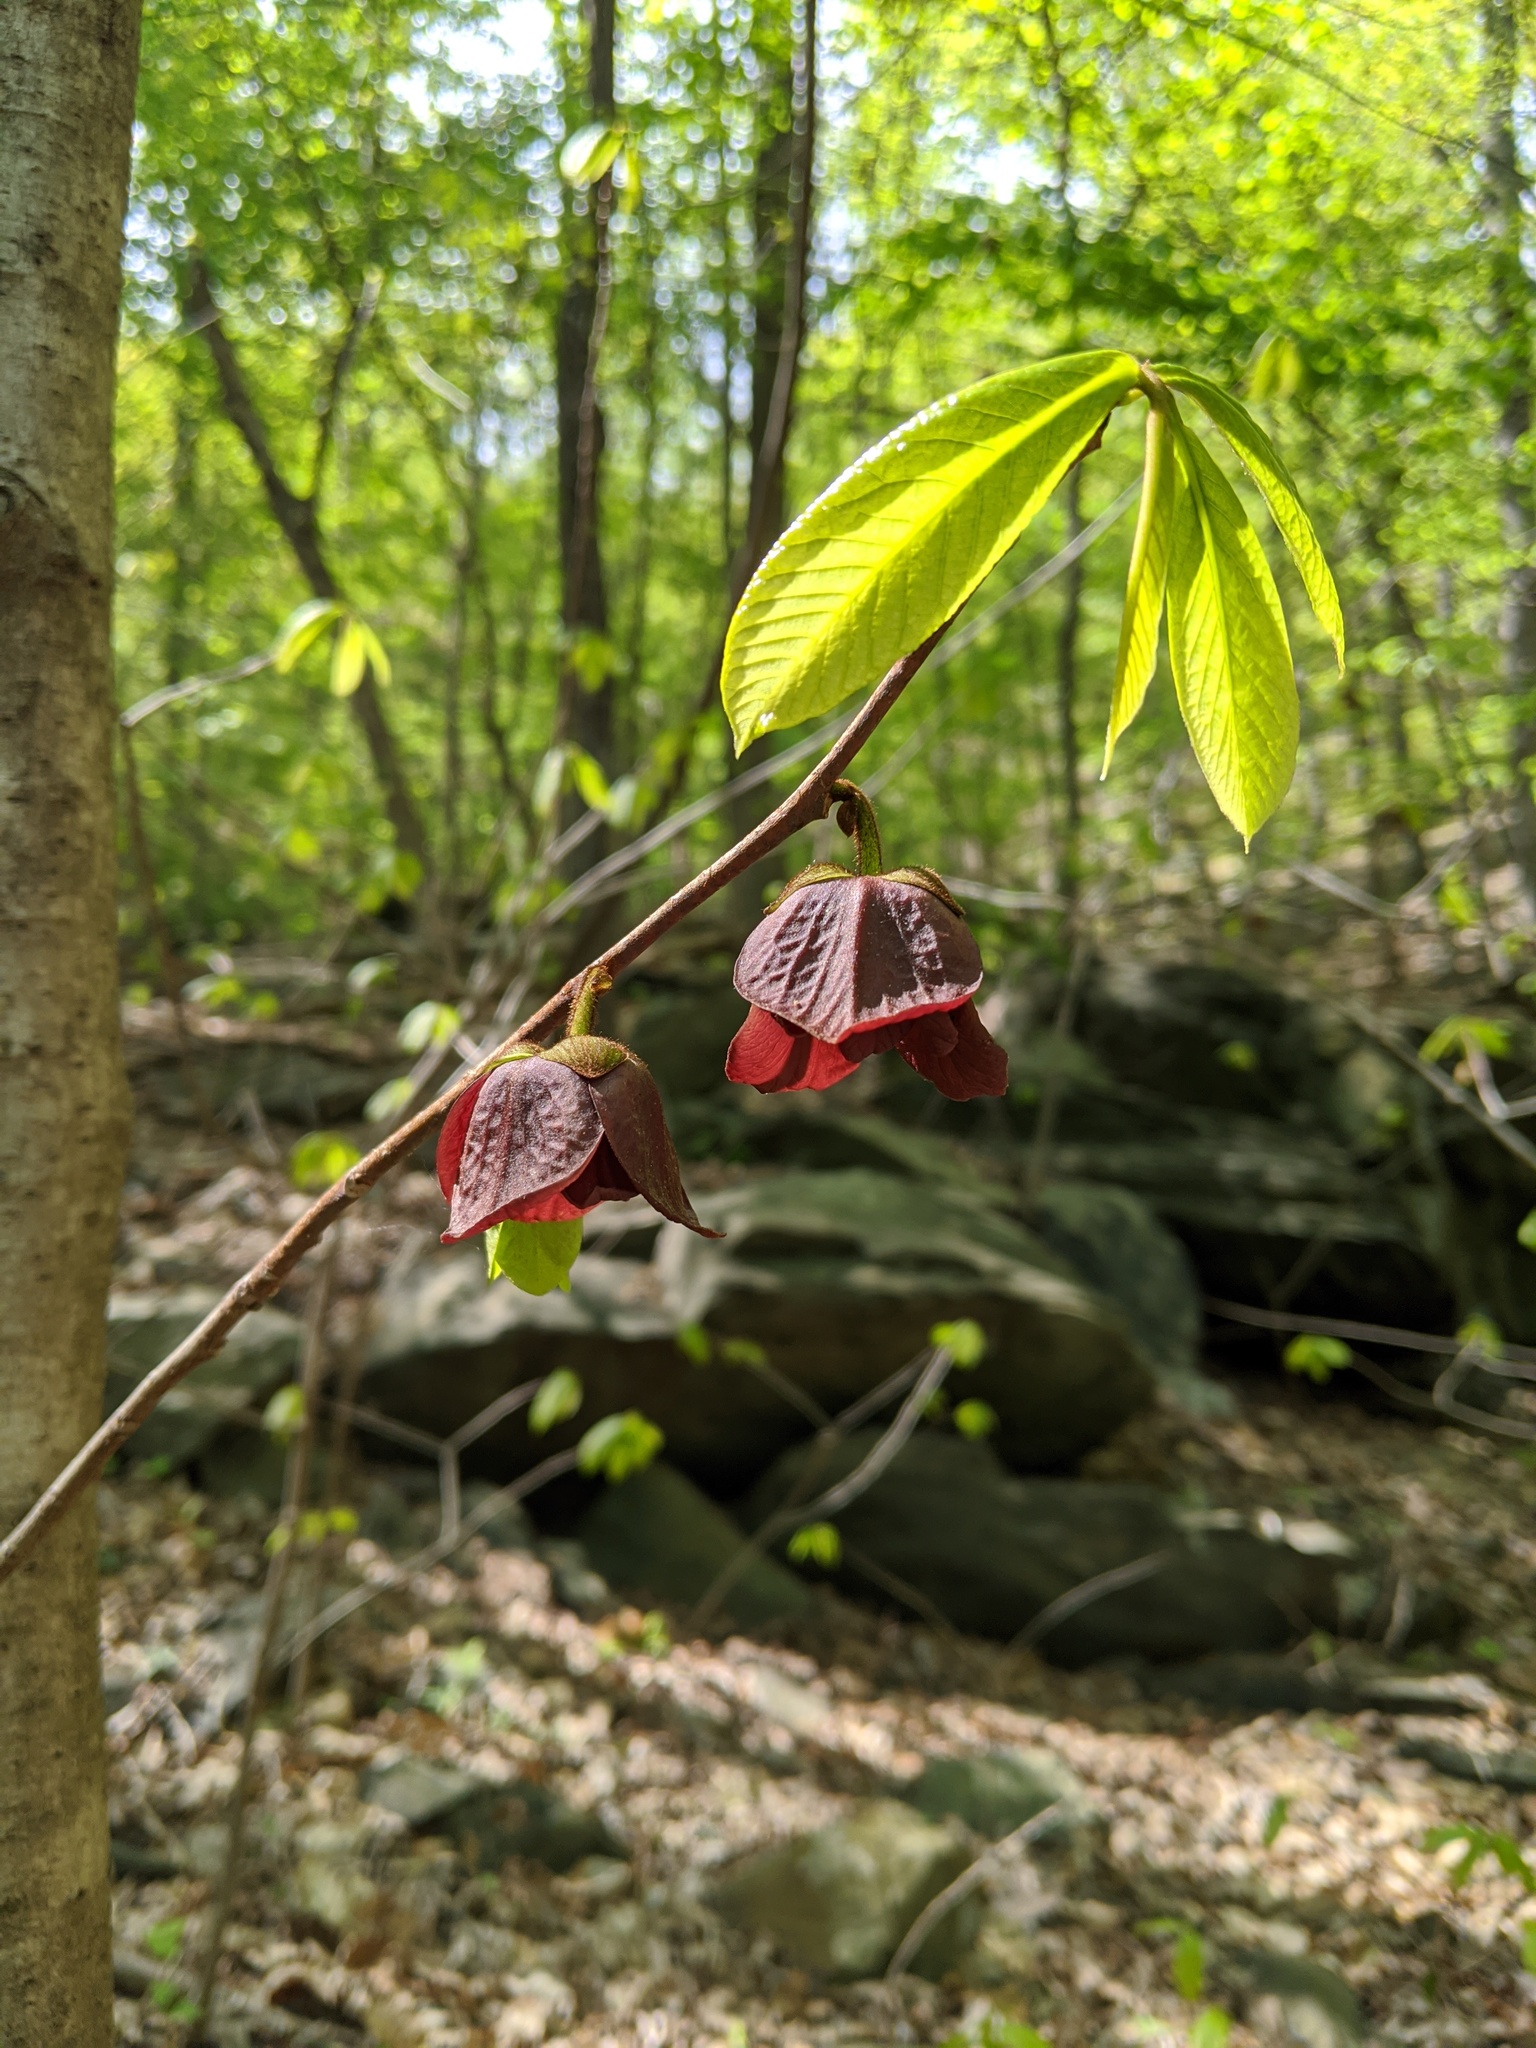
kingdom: Plantae
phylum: Tracheophyta
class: Magnoliopsida
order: Magnoliales
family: Annonaceae
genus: Asimina
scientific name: Asimina triloba
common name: Dog-banana
